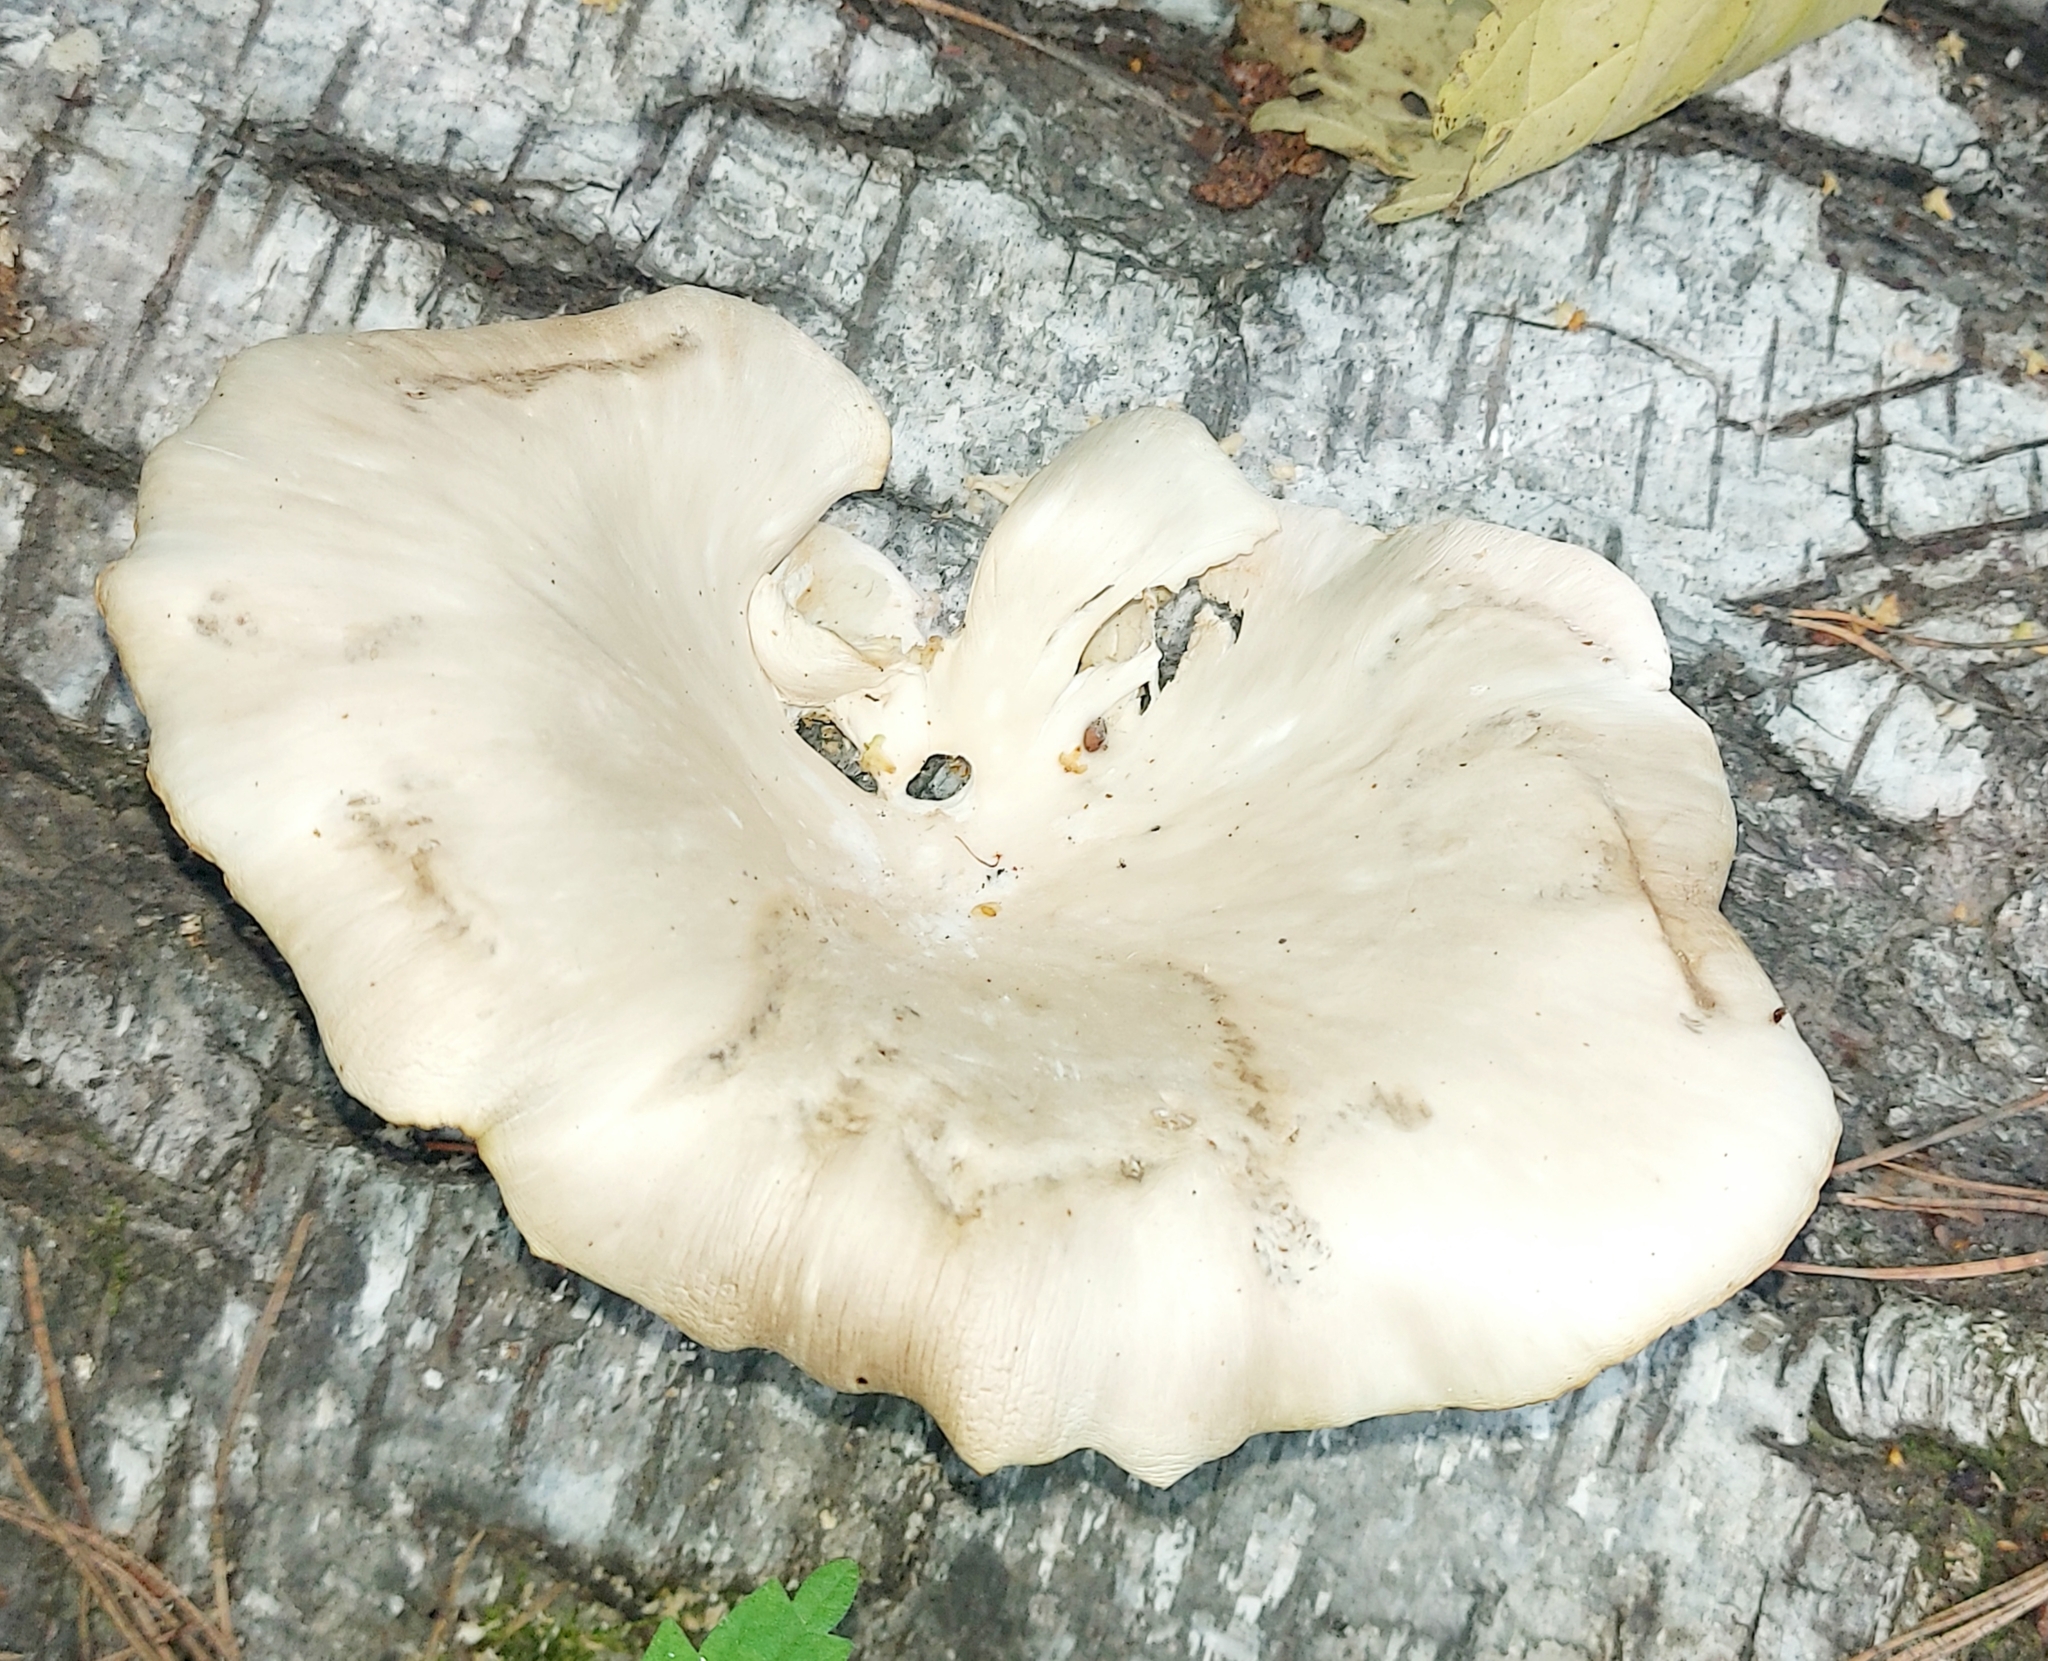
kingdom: Fungi
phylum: Basidiomycota
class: Agaricomycetes
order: Agaricales
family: Pleurotaceae
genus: Pleurotus
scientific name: Pleurotus pulmonarius
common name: Pale oyster
